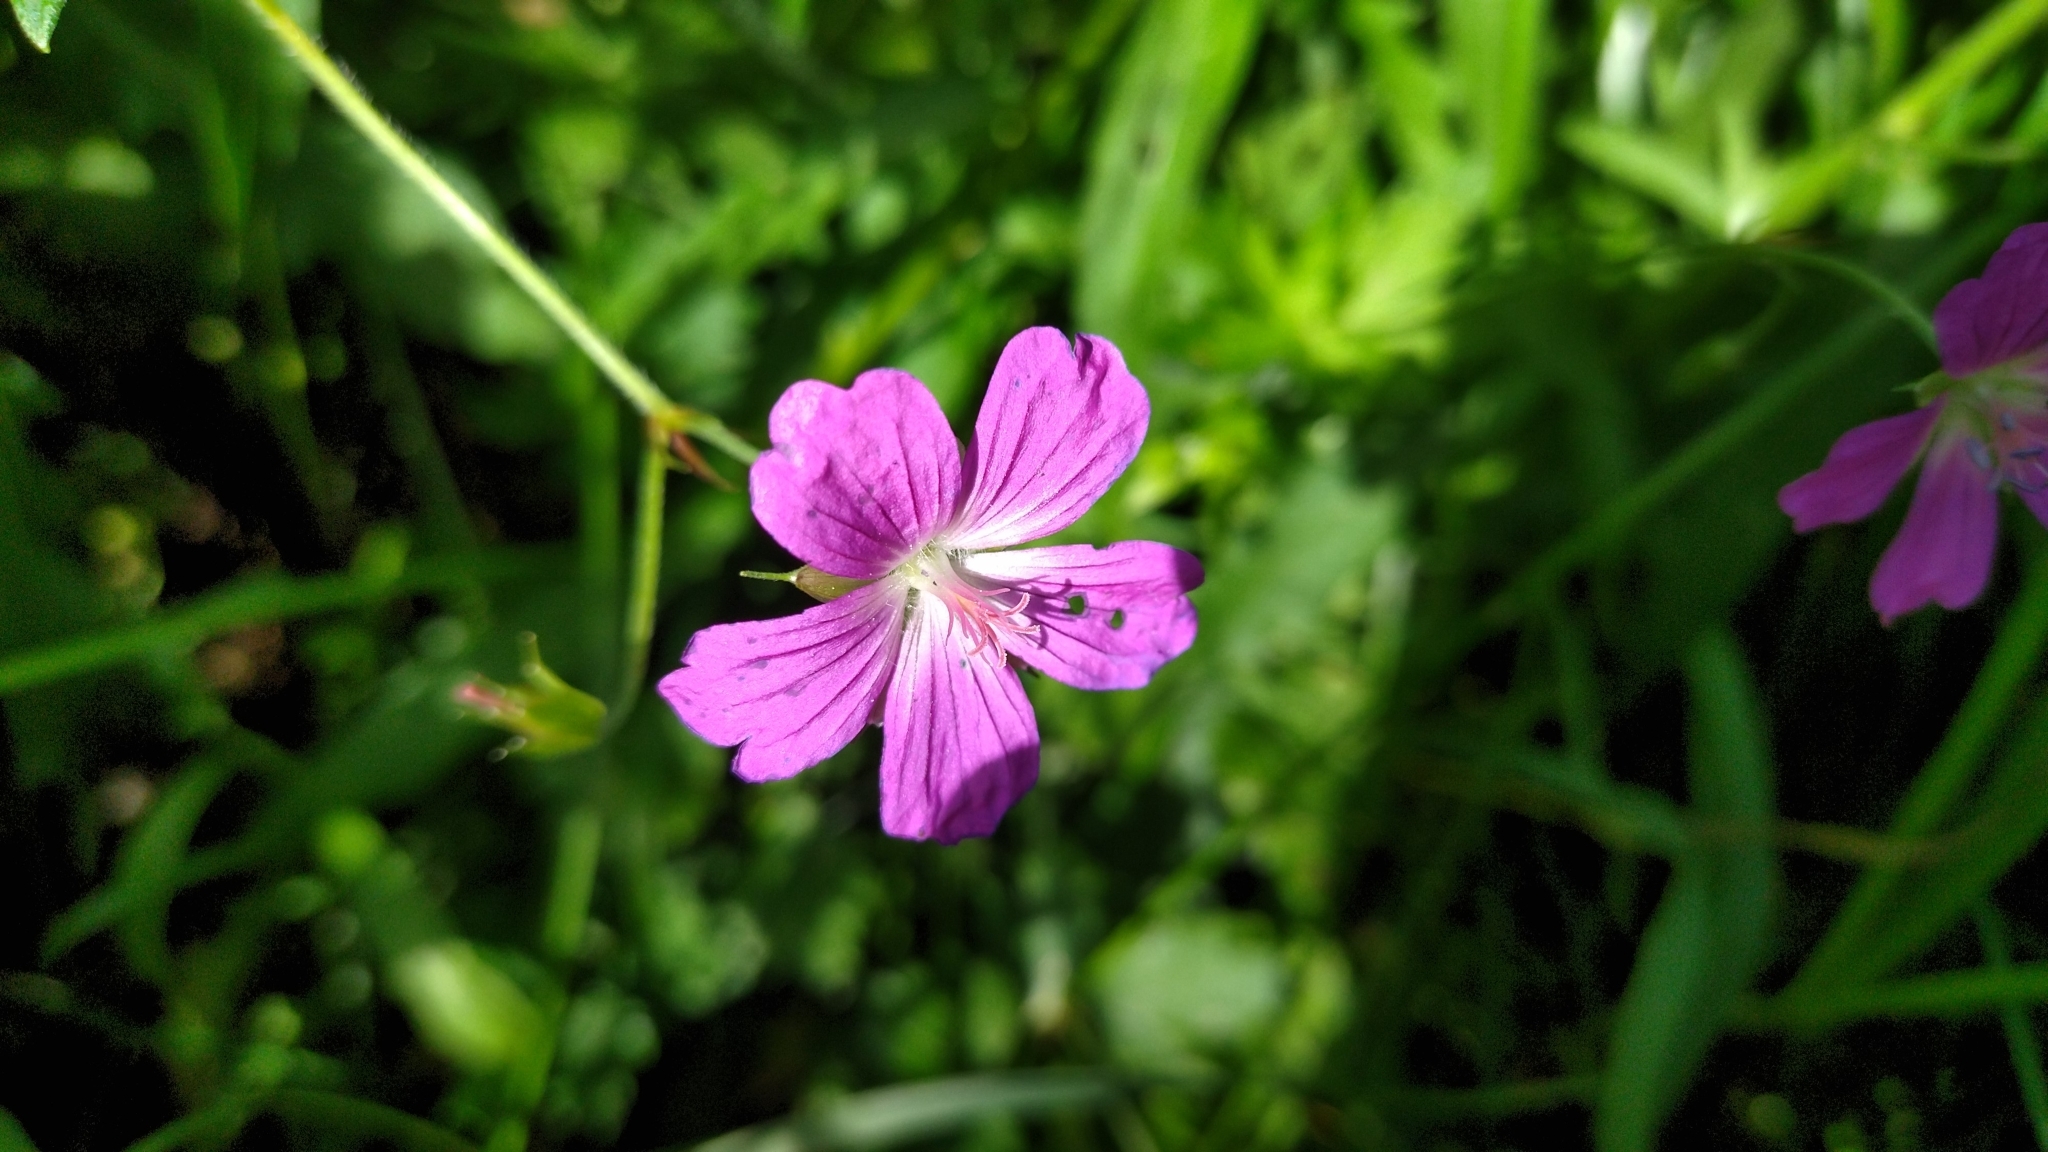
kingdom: Plantae
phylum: Tracheophyta
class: Magnoliopsida
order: Geraniales
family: Geraniaceae
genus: Geranium
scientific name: Geranium palustre
